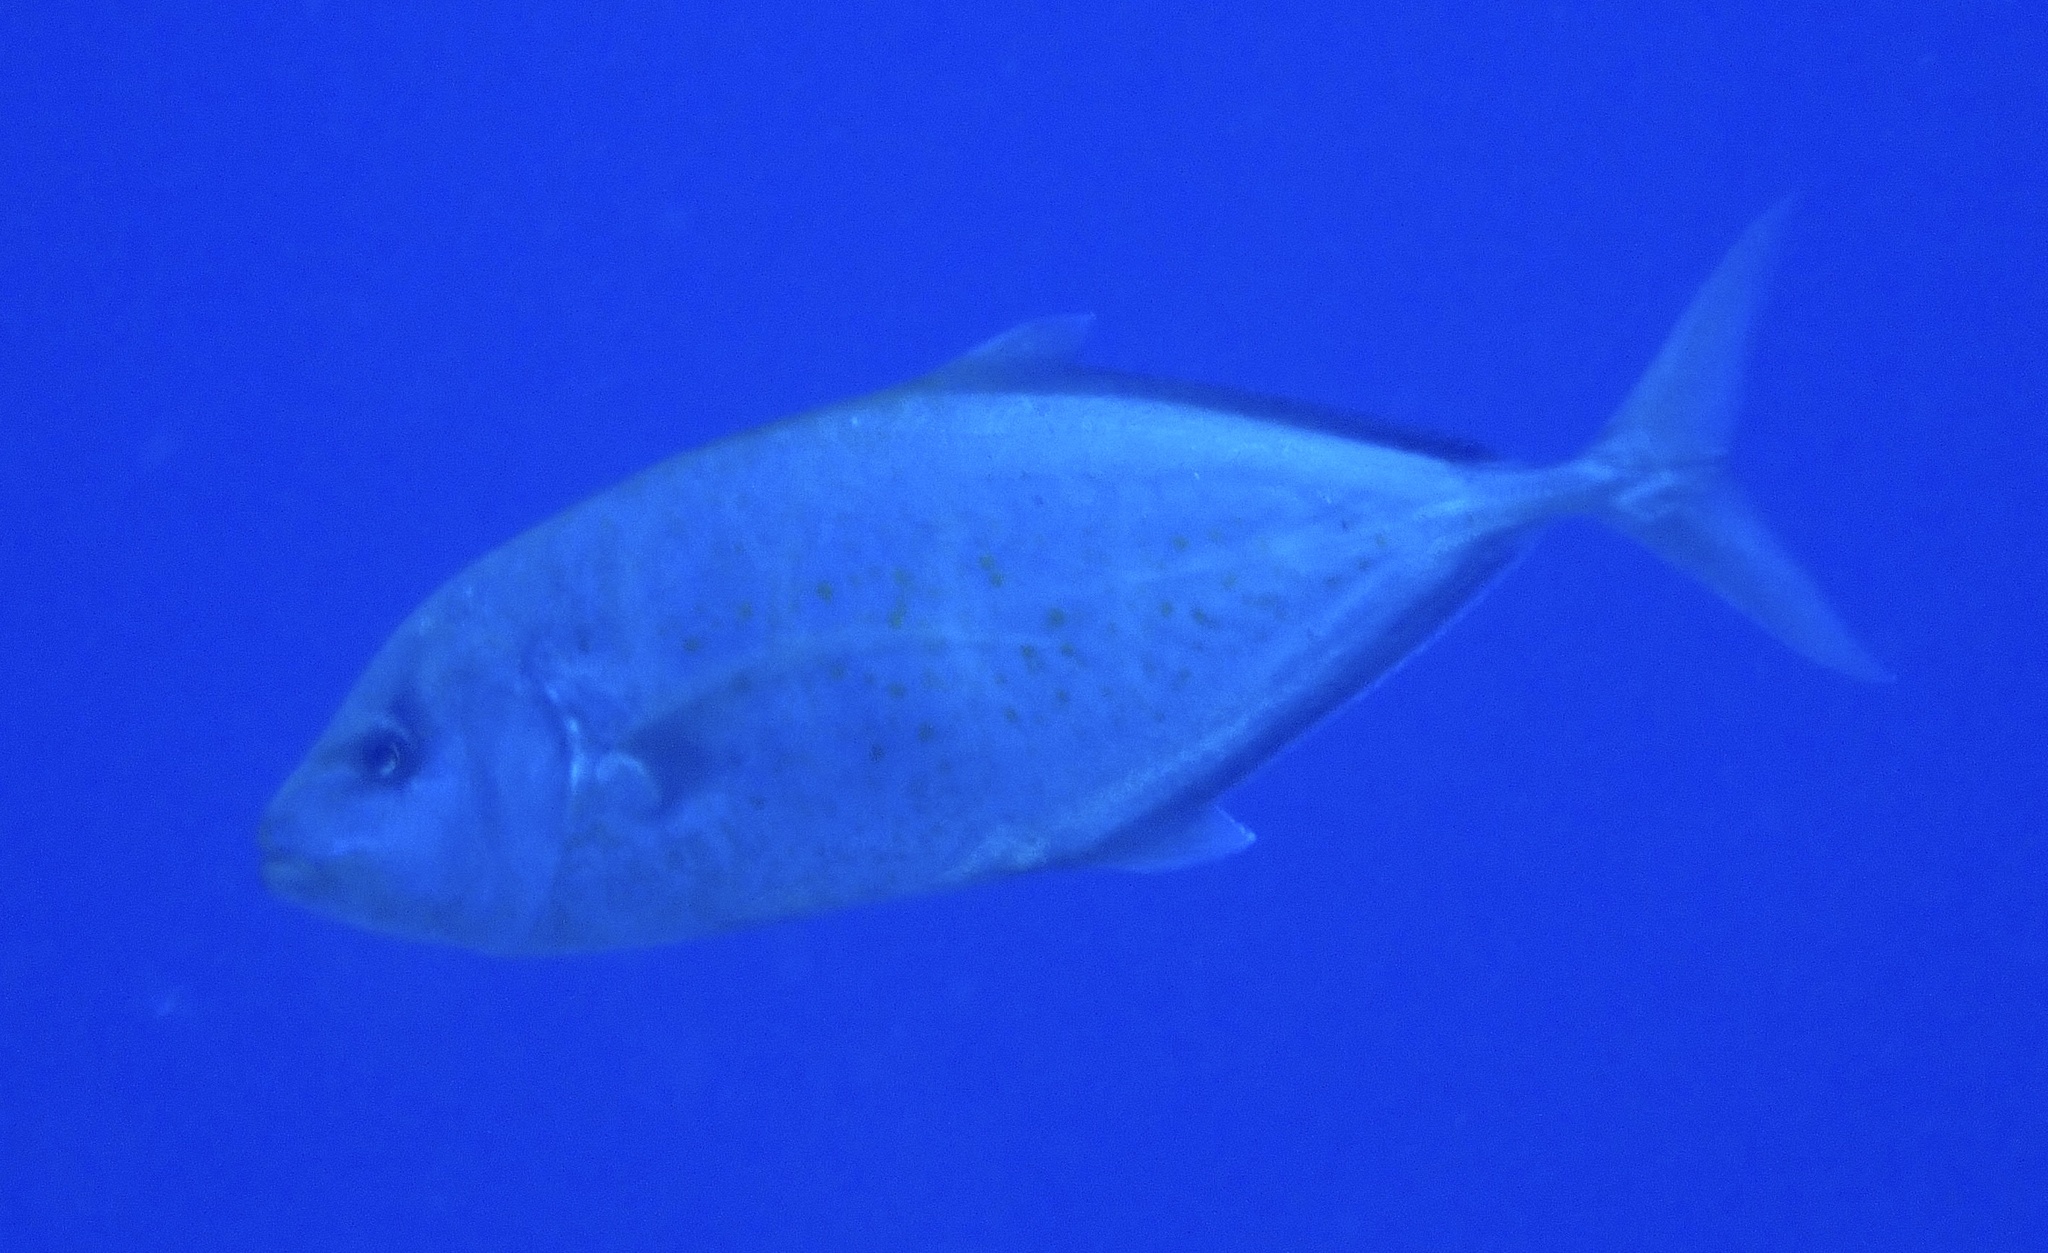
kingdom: Animalia
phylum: Chordata
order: Perciformes
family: Carangidae
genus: Flavocaranx
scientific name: Flavocaranx bajad
